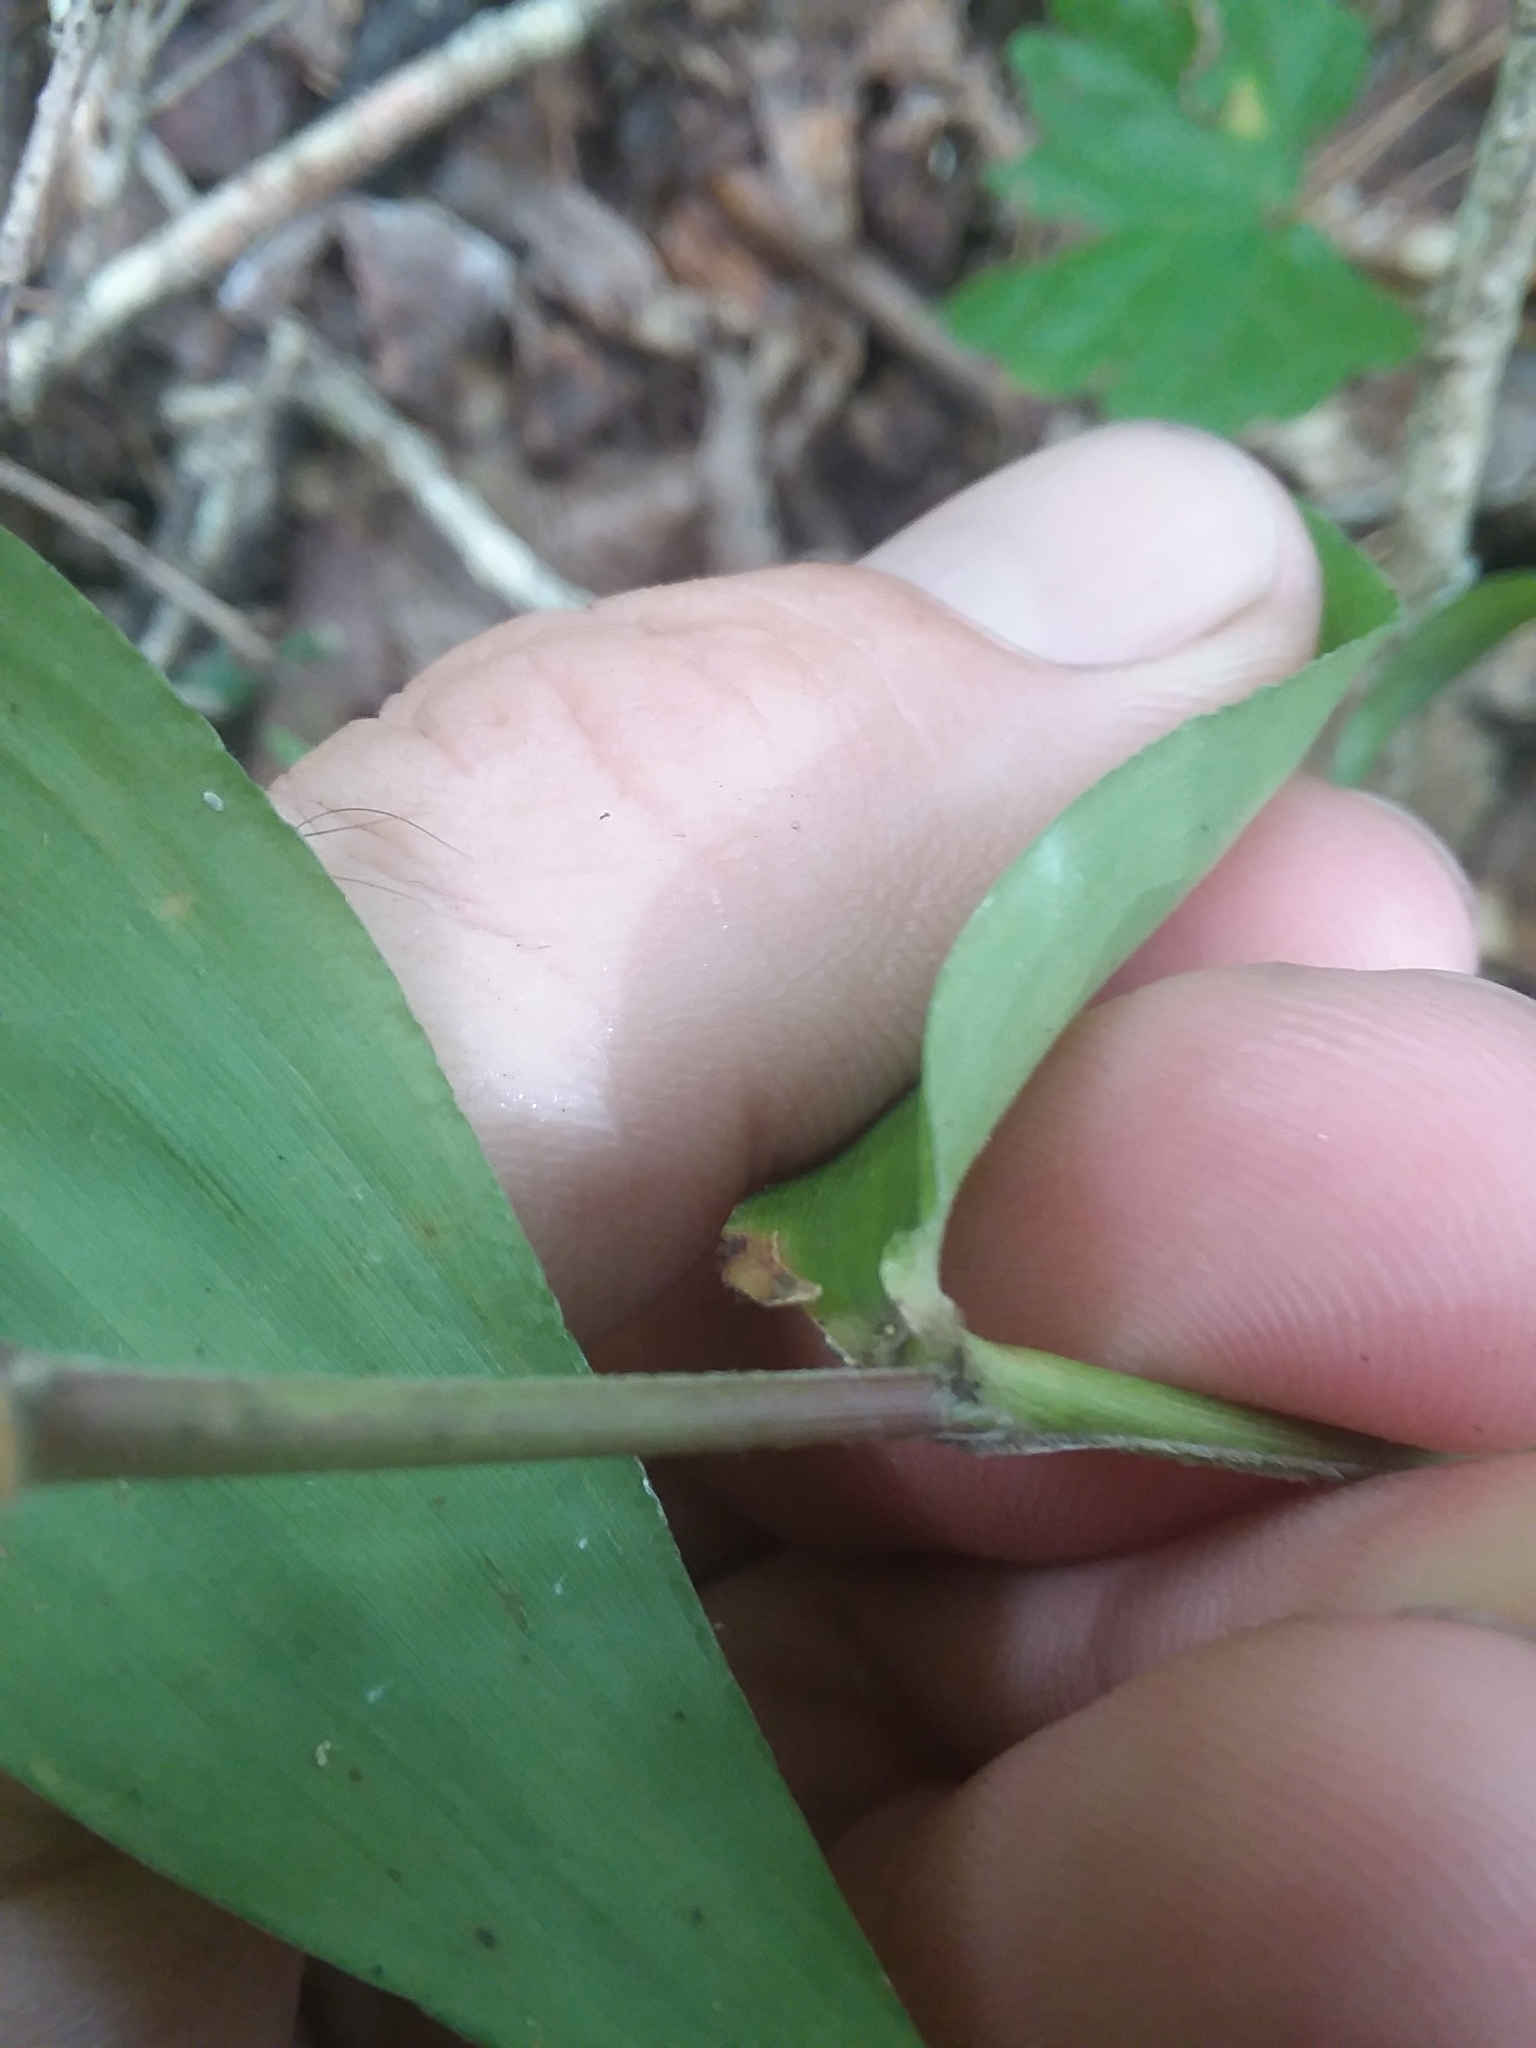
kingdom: Plantae
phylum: Tracheophyta
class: Liliopsida
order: Poales
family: Poaceae
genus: Dichanthelium
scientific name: Dichanthelium boscii
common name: Bosc's panic grass
